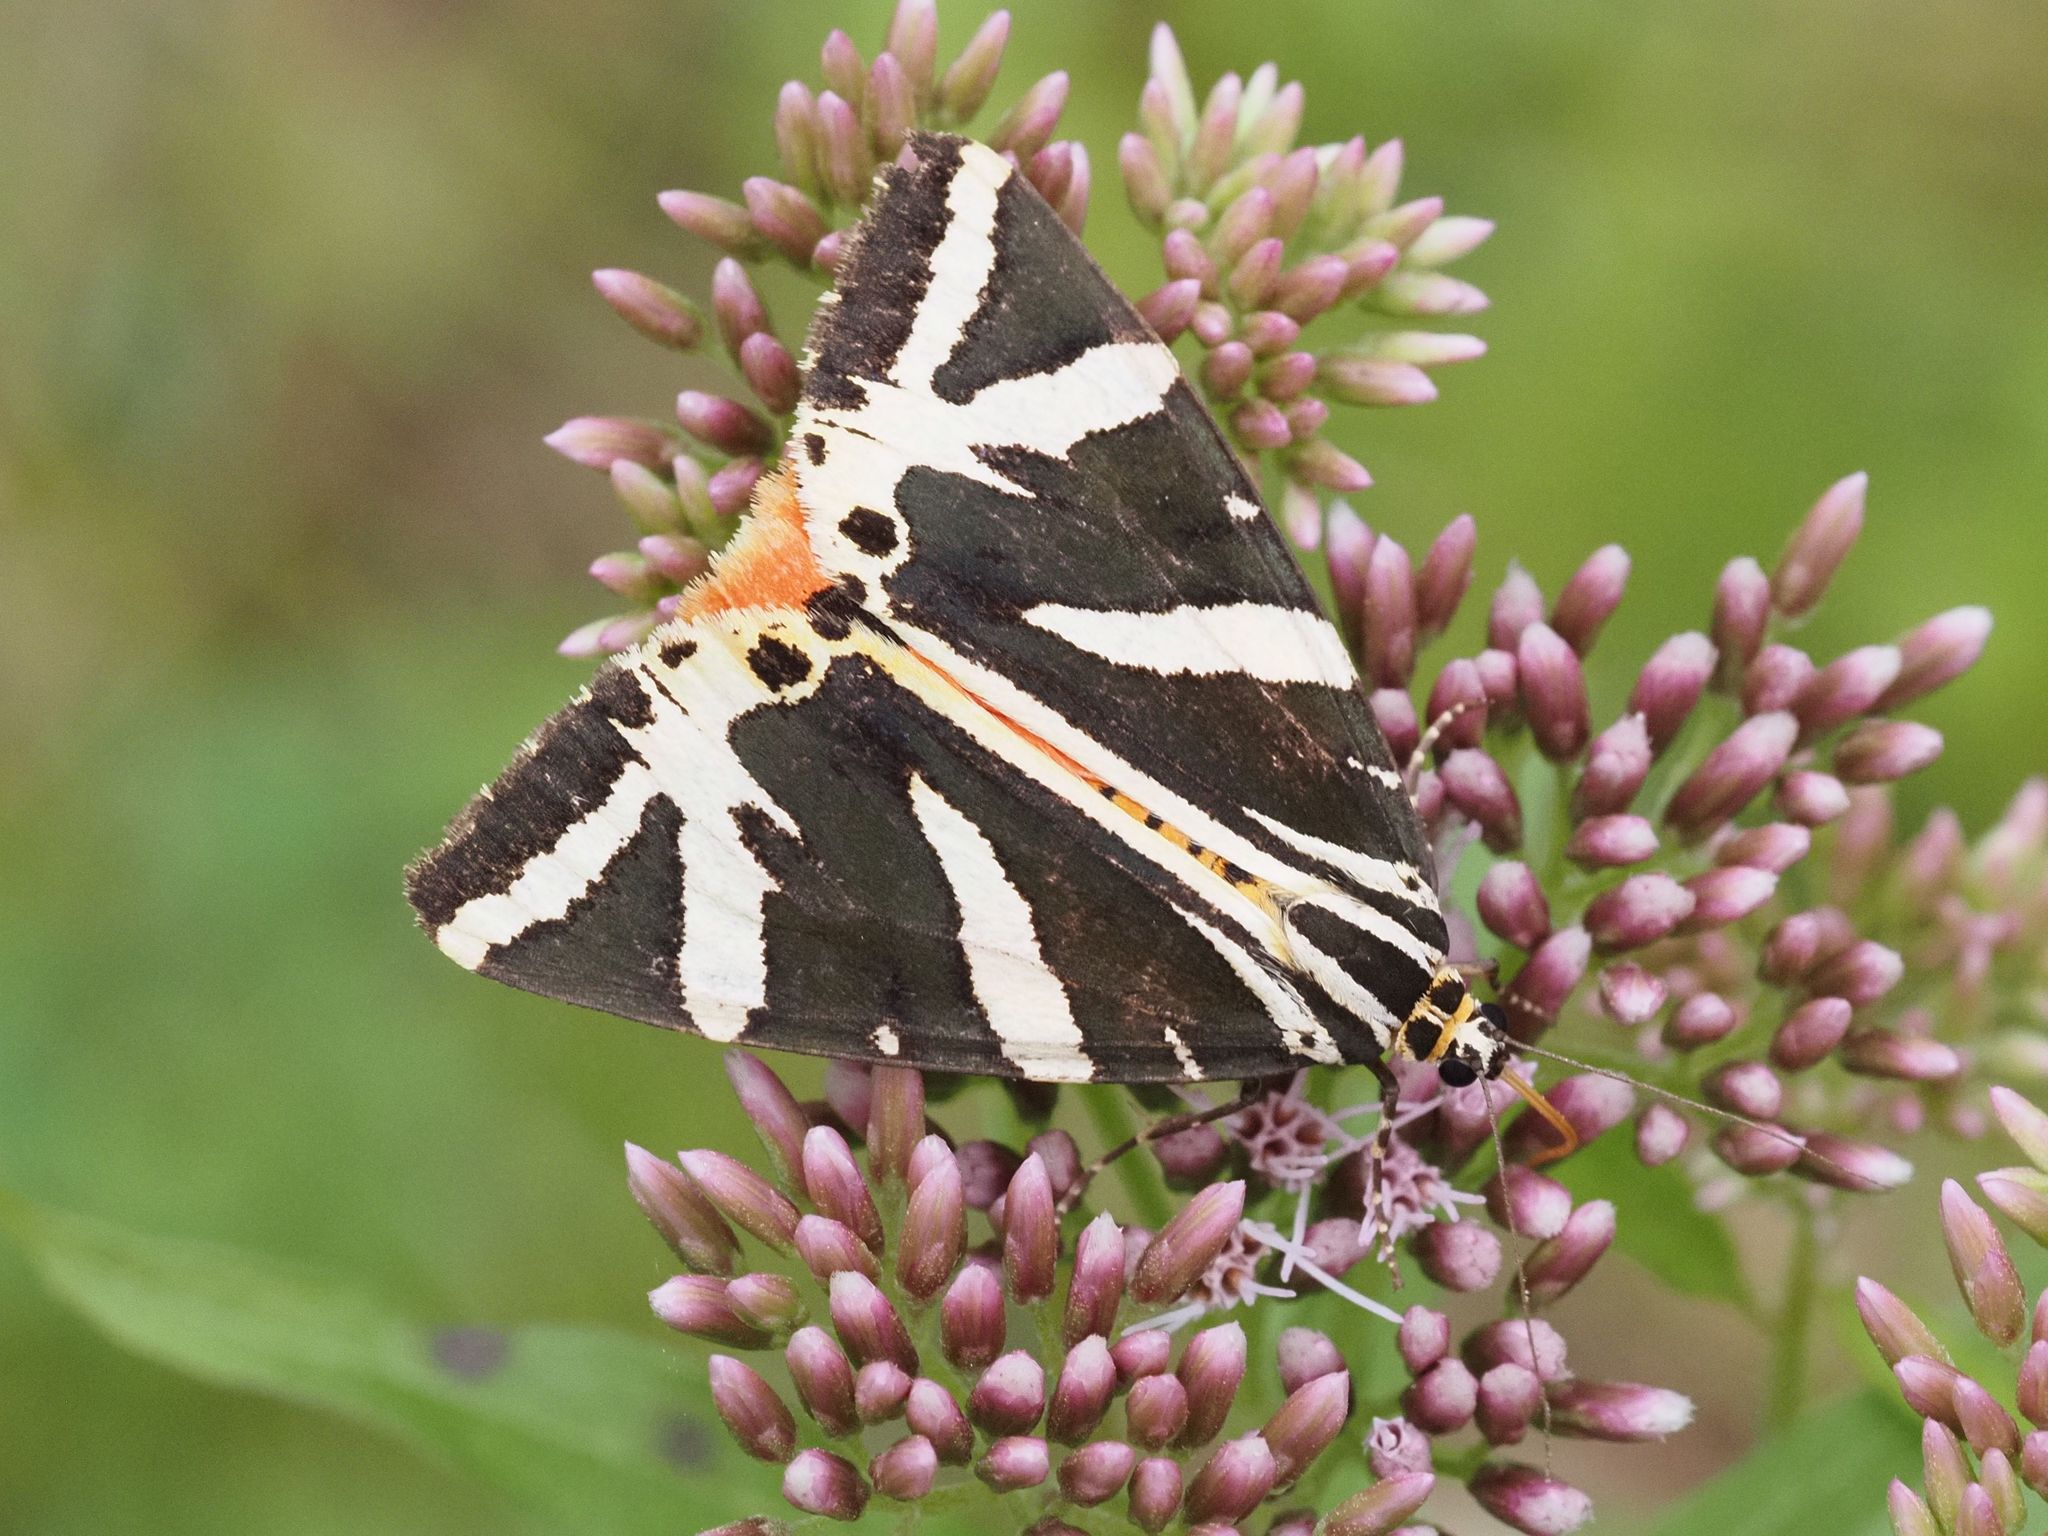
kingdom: Animalia
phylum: Arthropoda
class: Insecta
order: Lepidoptera
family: Erebidae
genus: Euplagia
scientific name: Euplagia quadripunctaria
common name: Jersey tiger
